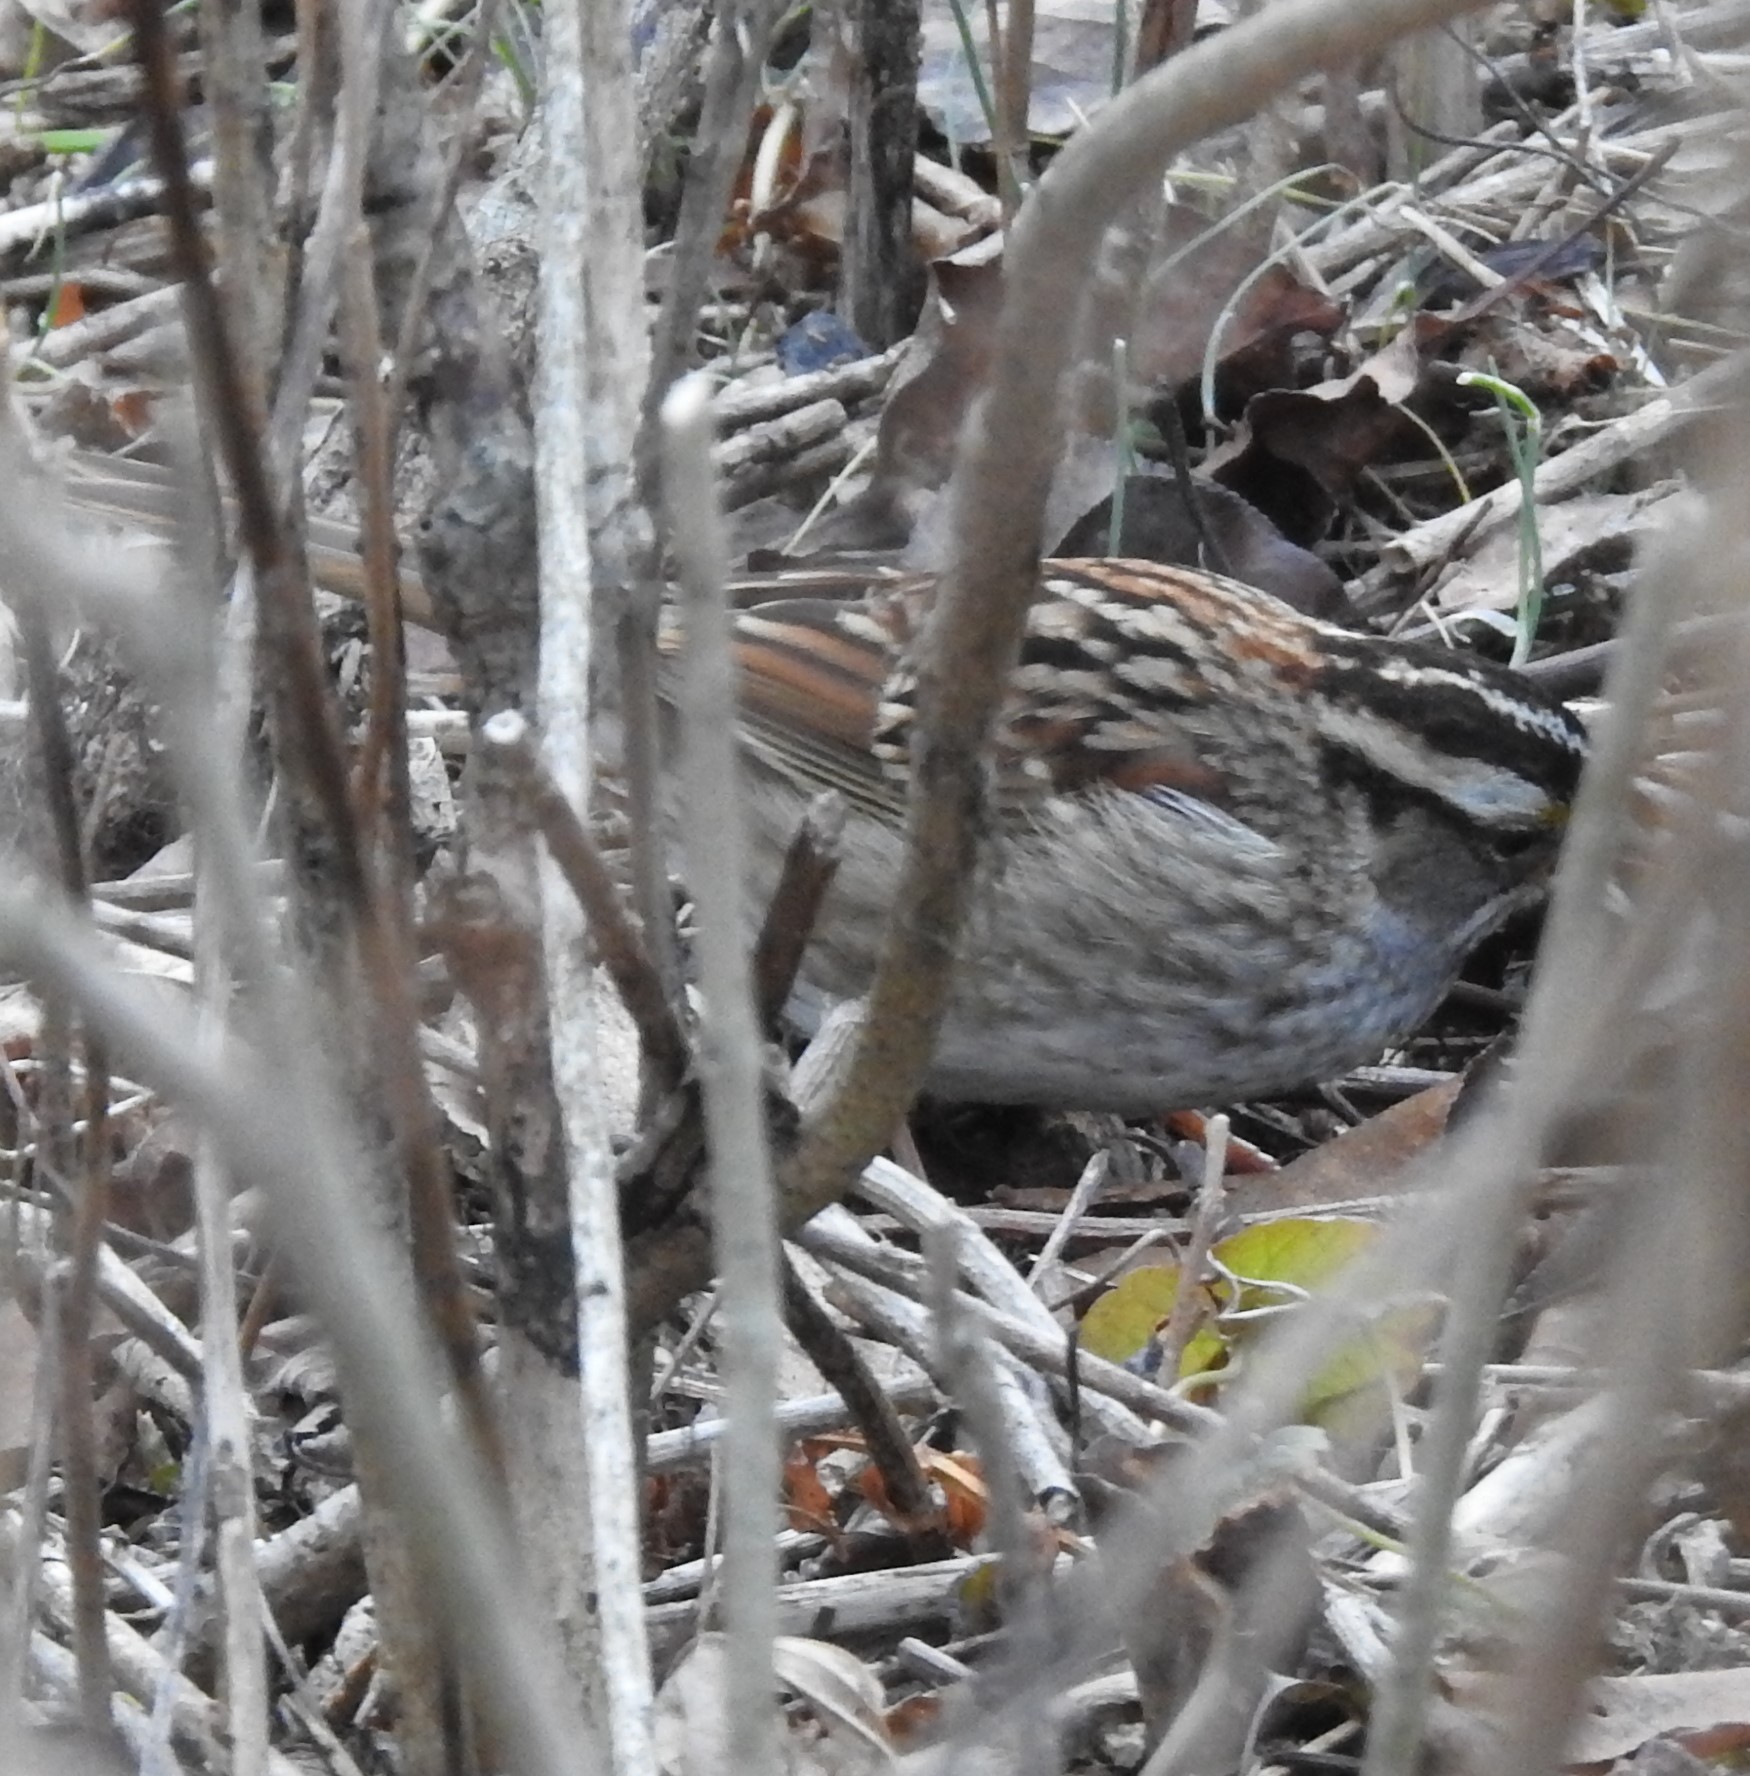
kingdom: Animalia
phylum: Chordata
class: Aves
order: Passeriformes
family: Passerellidae
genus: Zonotrichia
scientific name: Zonotrichia albicollis
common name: White-throated sparrow
